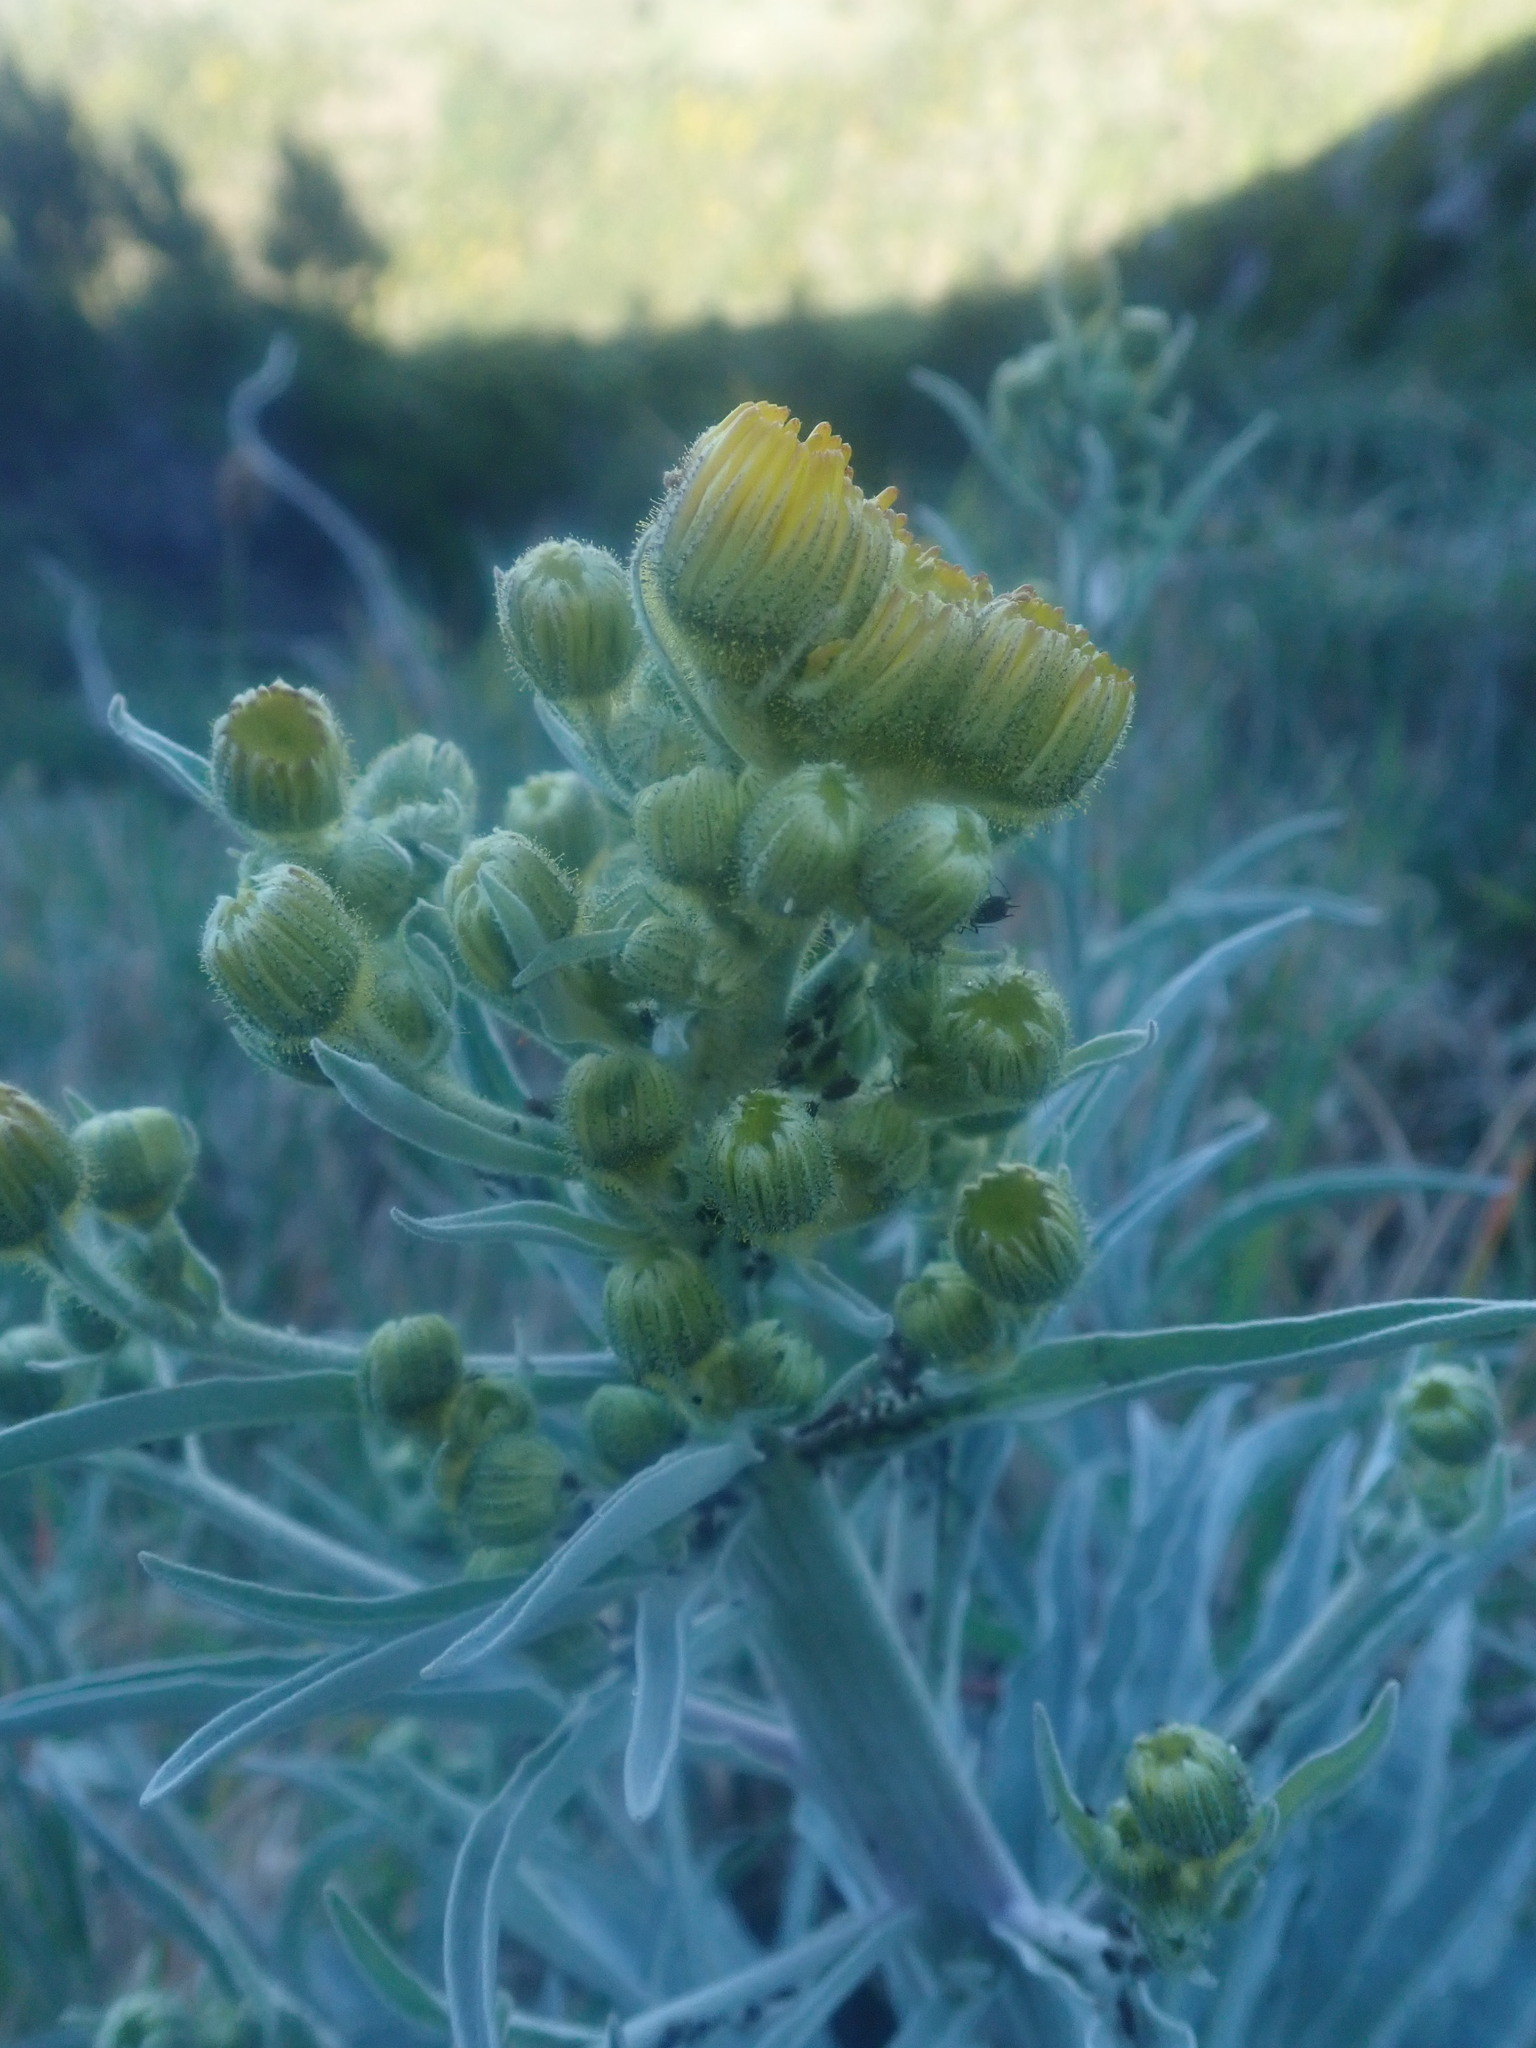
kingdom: Plantae
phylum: Tracheophyta
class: Magnoliopsida
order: Asterales
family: Asteraceae
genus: Andryala
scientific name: Andryala glandulosa
